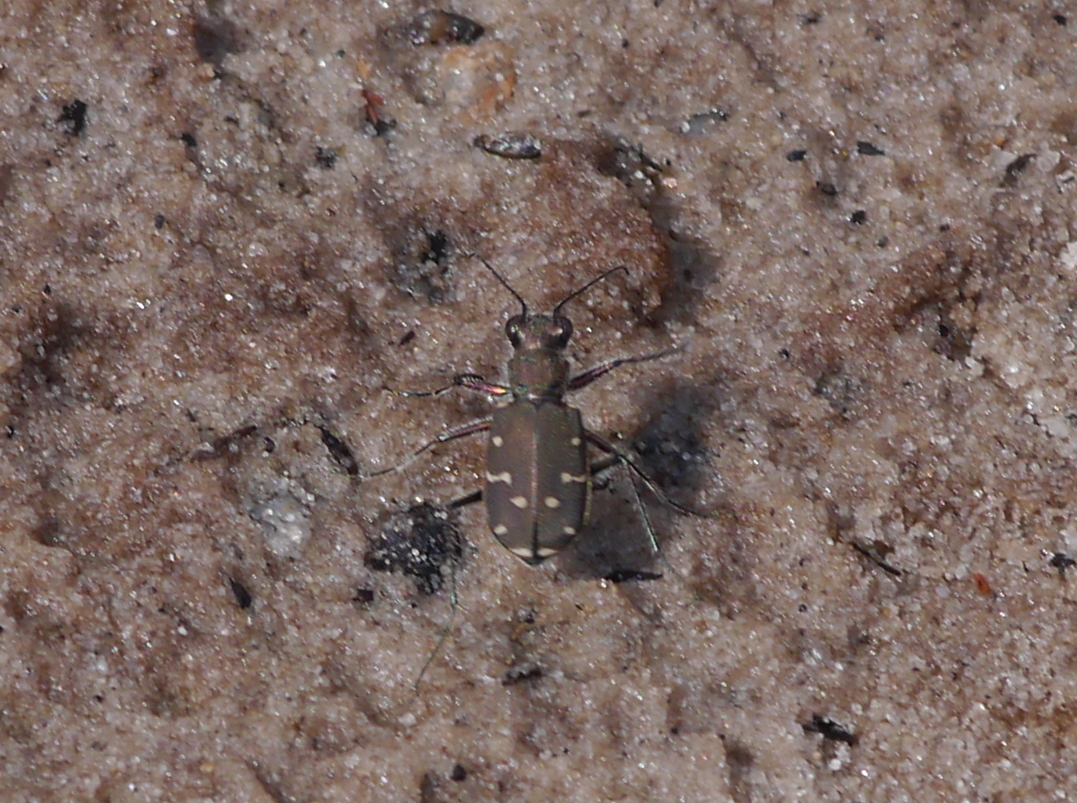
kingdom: Animalia
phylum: Arthropoda
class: Insecta
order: Coleoptera
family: Carabidae
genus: Cicindela
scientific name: Cicindela duodecimguttata
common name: Twelve-spotted tiger beetle
